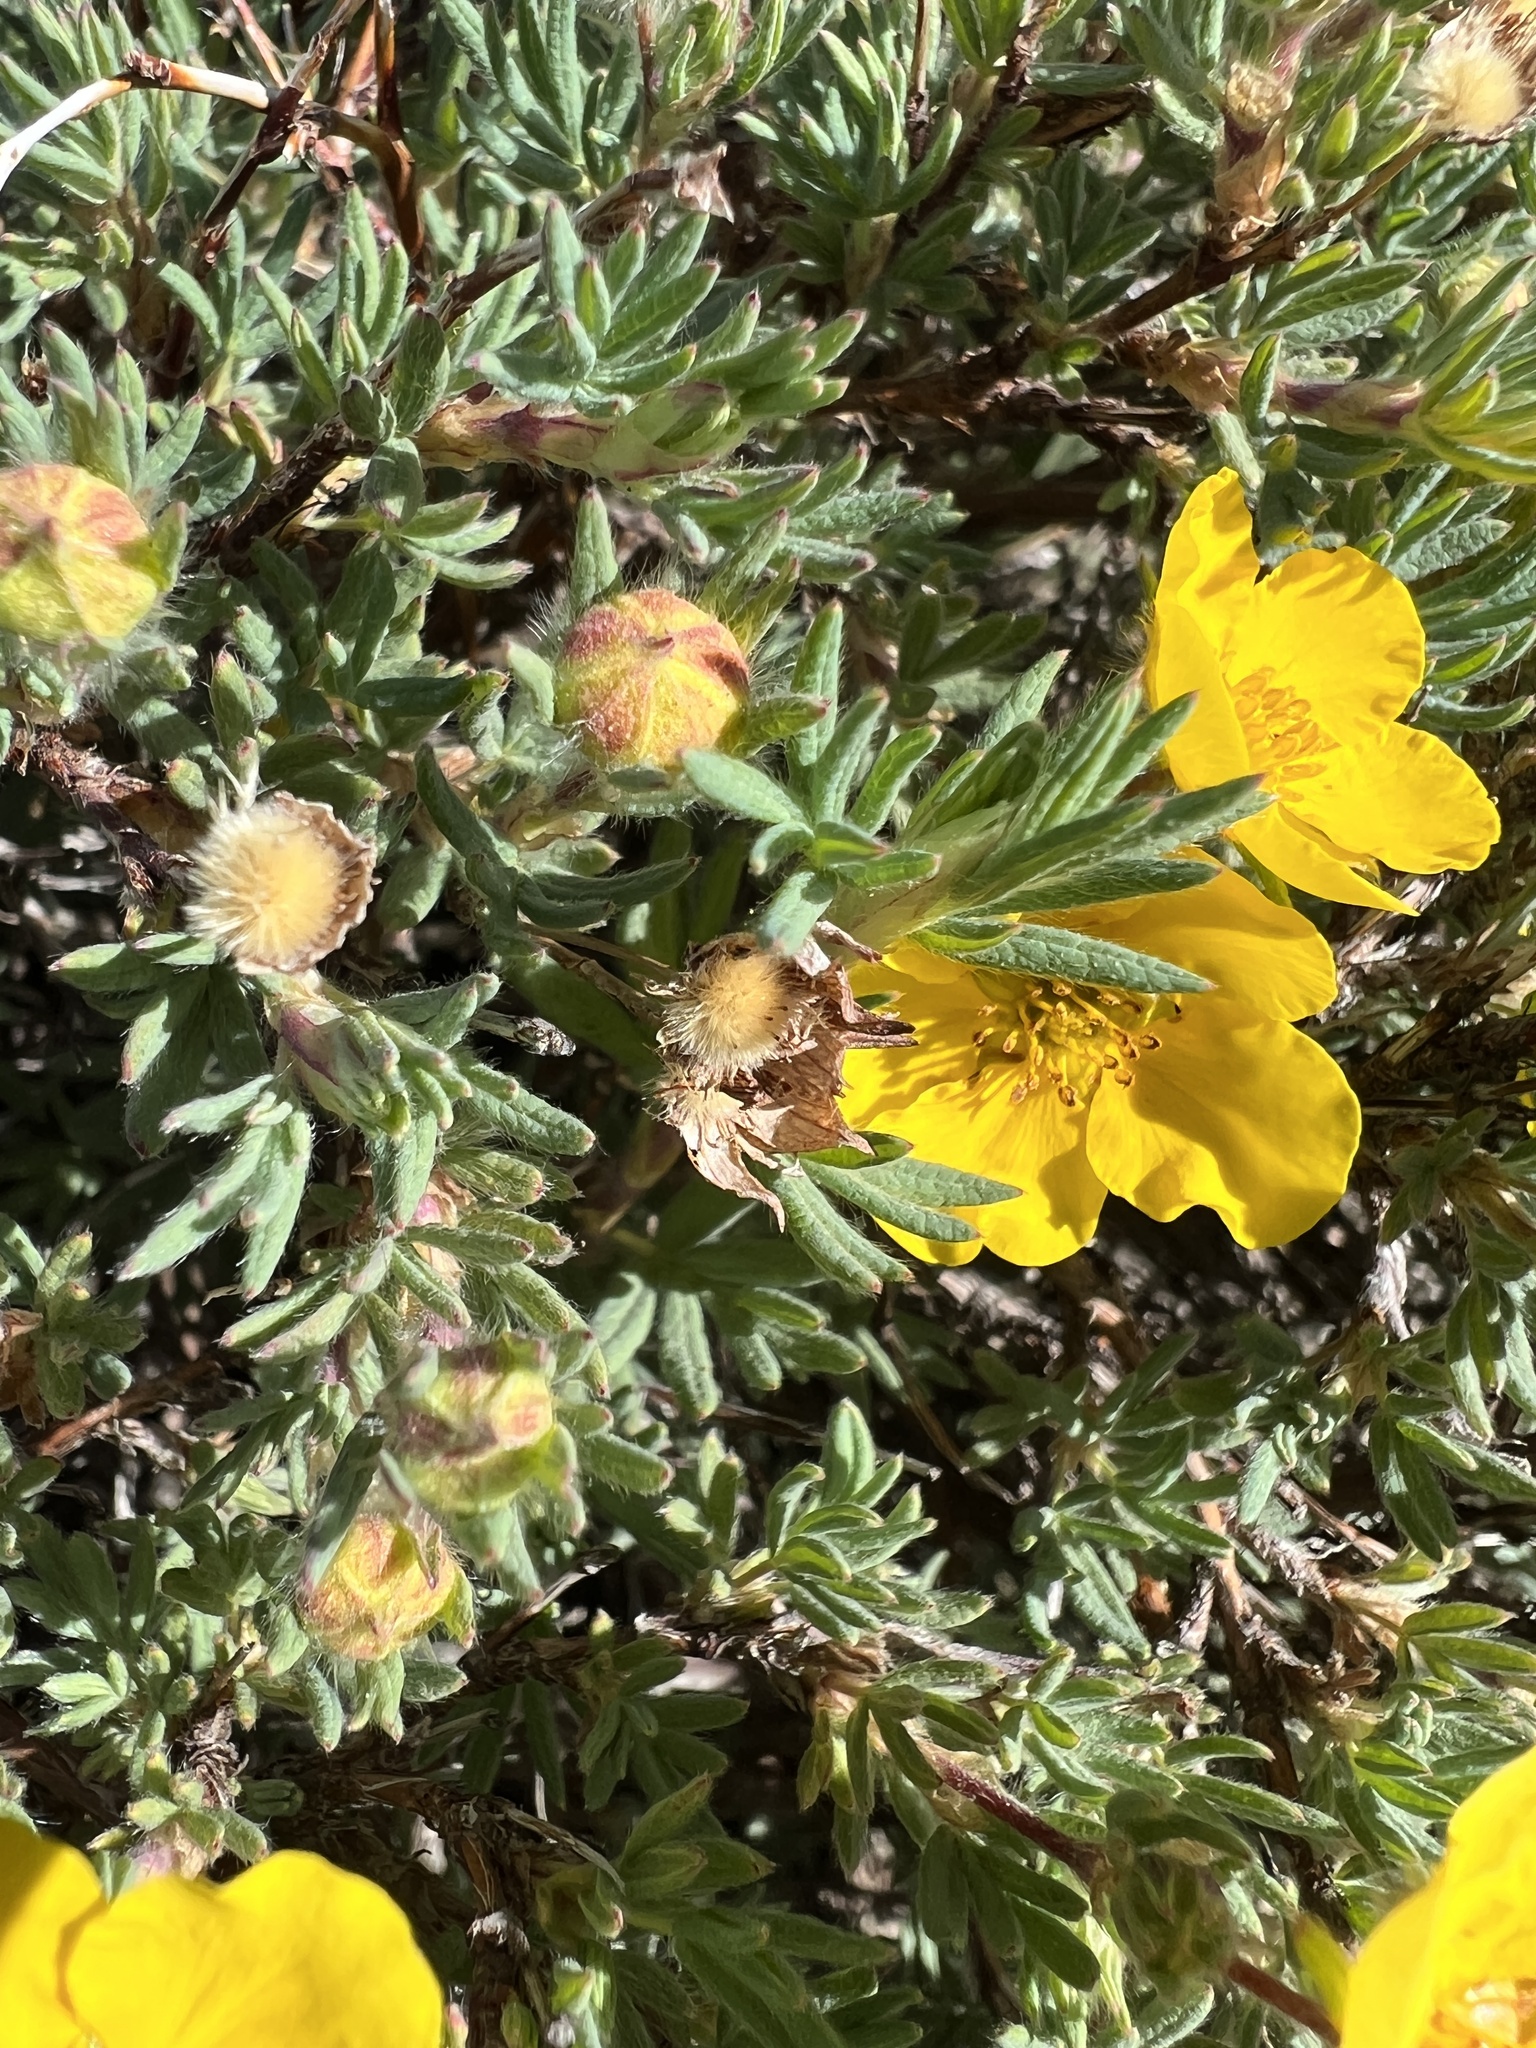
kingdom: Plantae
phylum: Tracheophyta
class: Magnoliopsida
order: Rosales
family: Rosaceae
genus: Dasiphora
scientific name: Dasiphora fruticosa
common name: Shrubby cinquefoil
